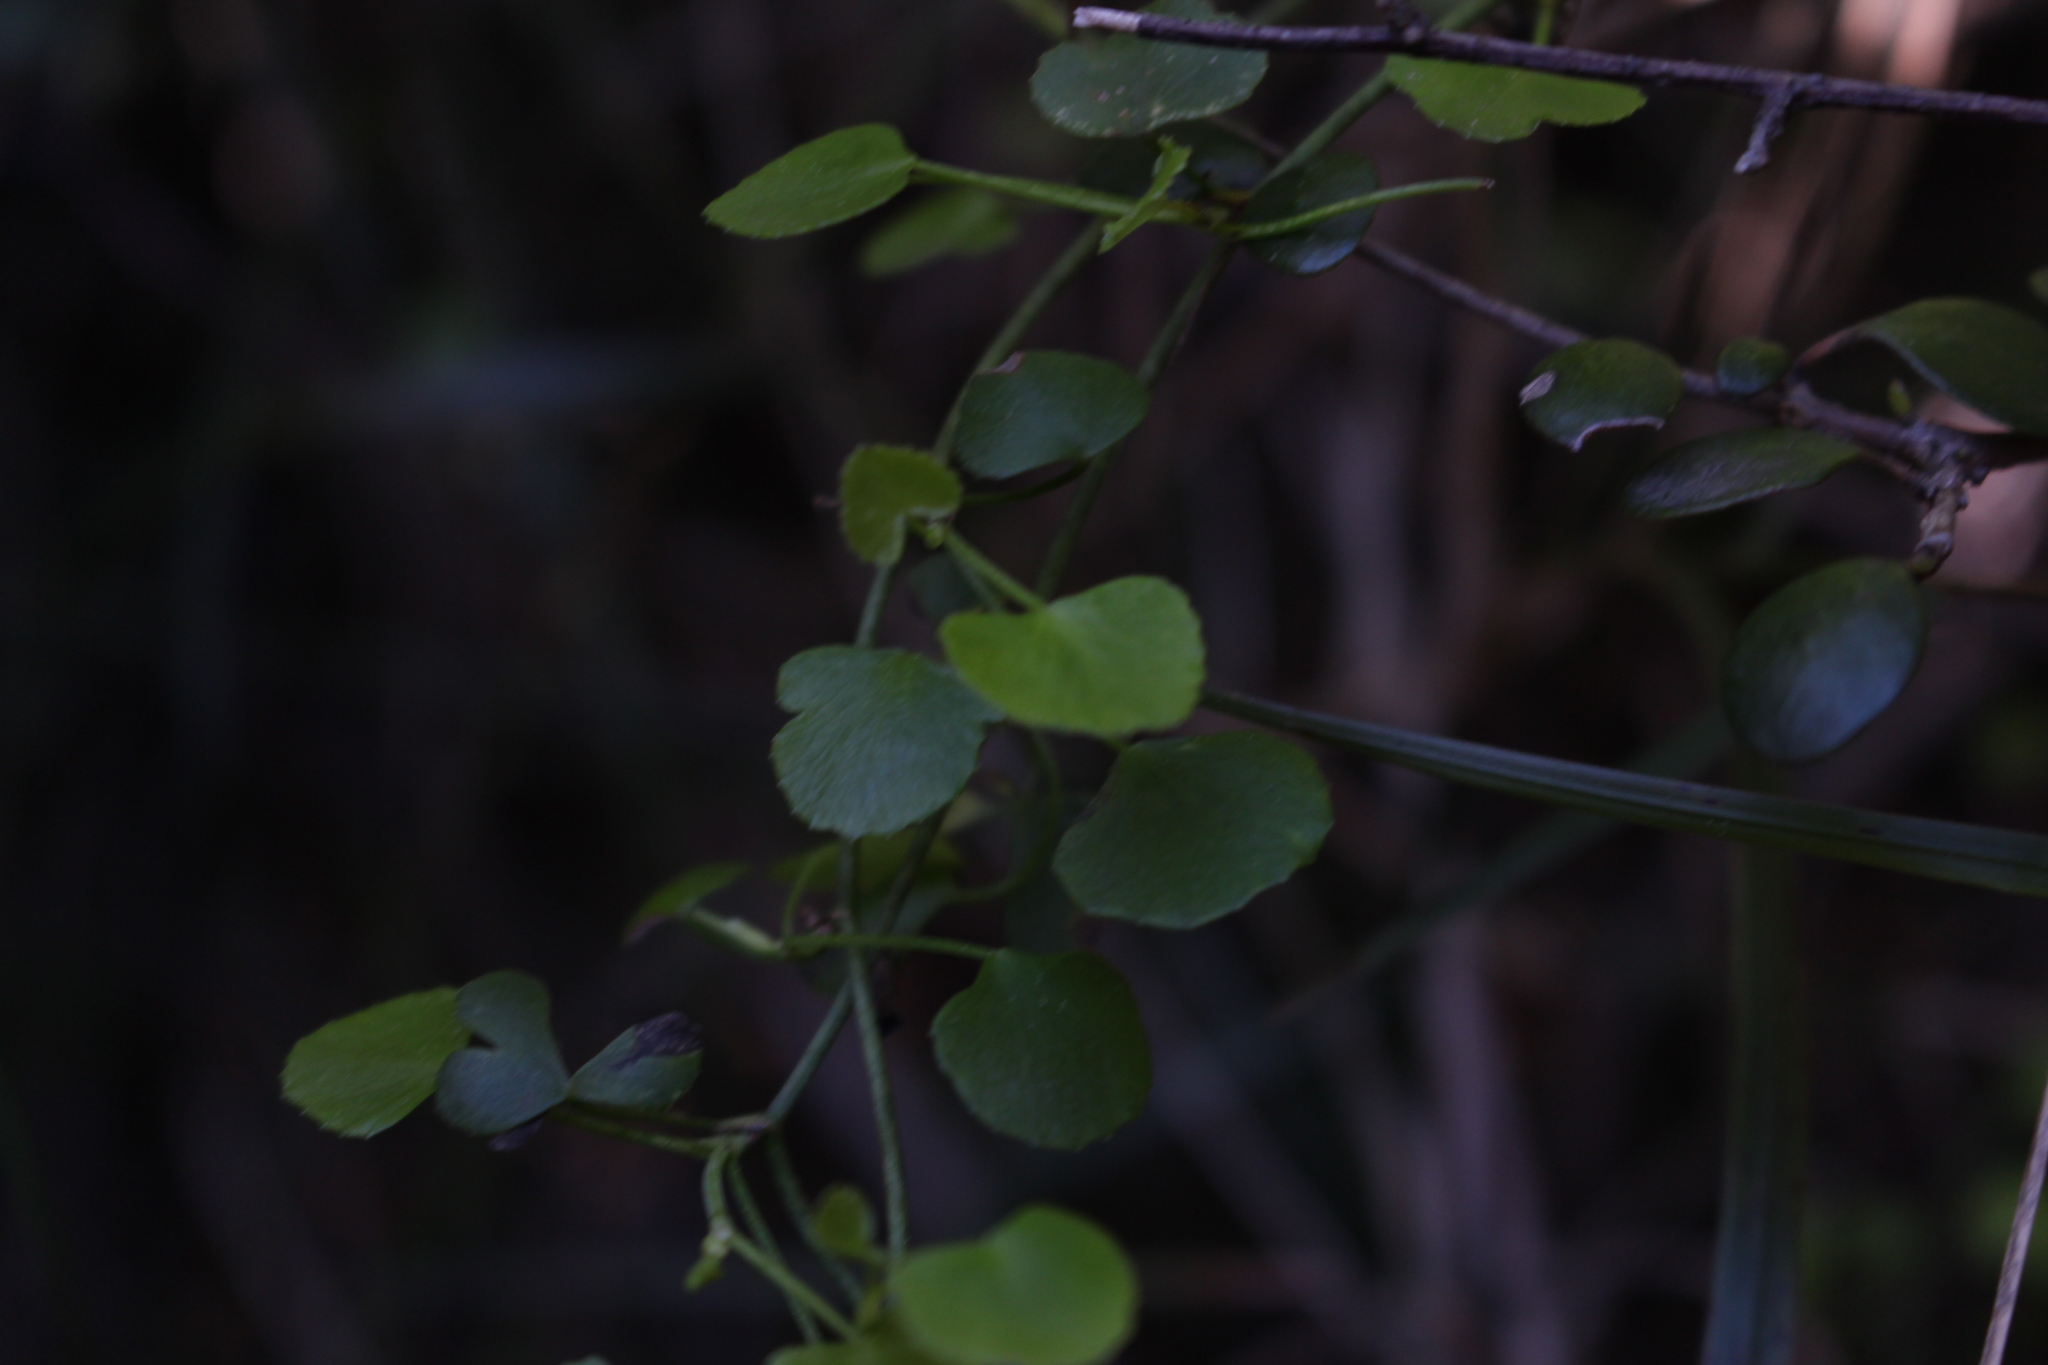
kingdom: Plantae
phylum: Tracheophyta
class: Magnoliopsida
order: Apiales
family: Apiaceae
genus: Scandia
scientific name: Scandia geniculata
